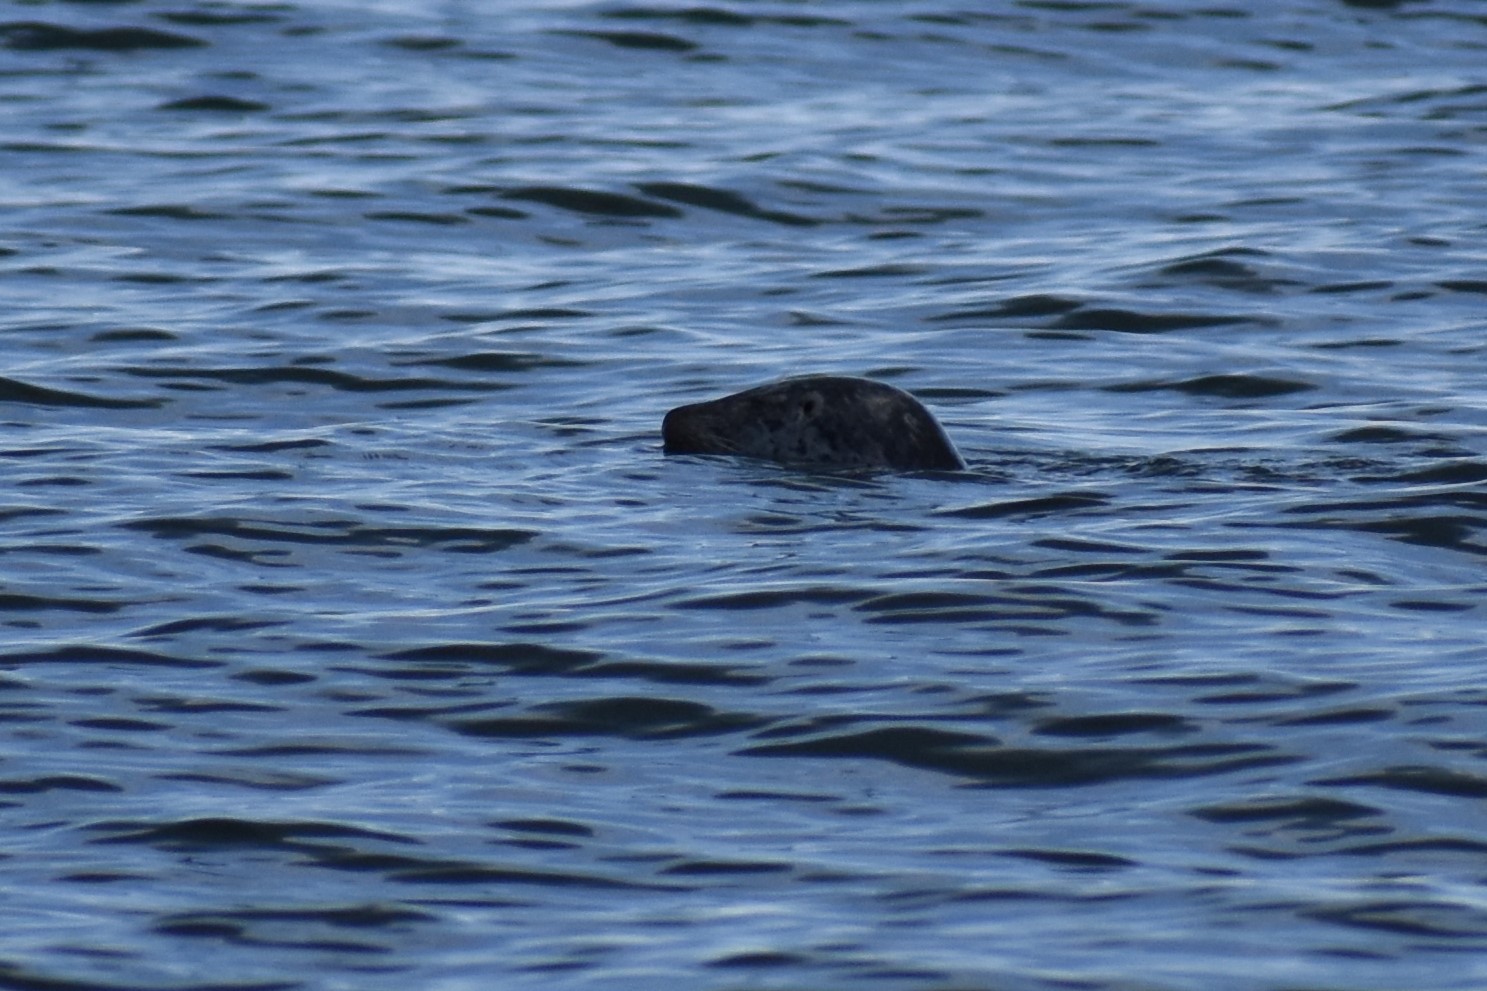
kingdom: Animalia
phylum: Chordata
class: Mammalia
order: Carnivora
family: Phocidae
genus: Phoca
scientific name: Phoca vitulina
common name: Harbor seal
